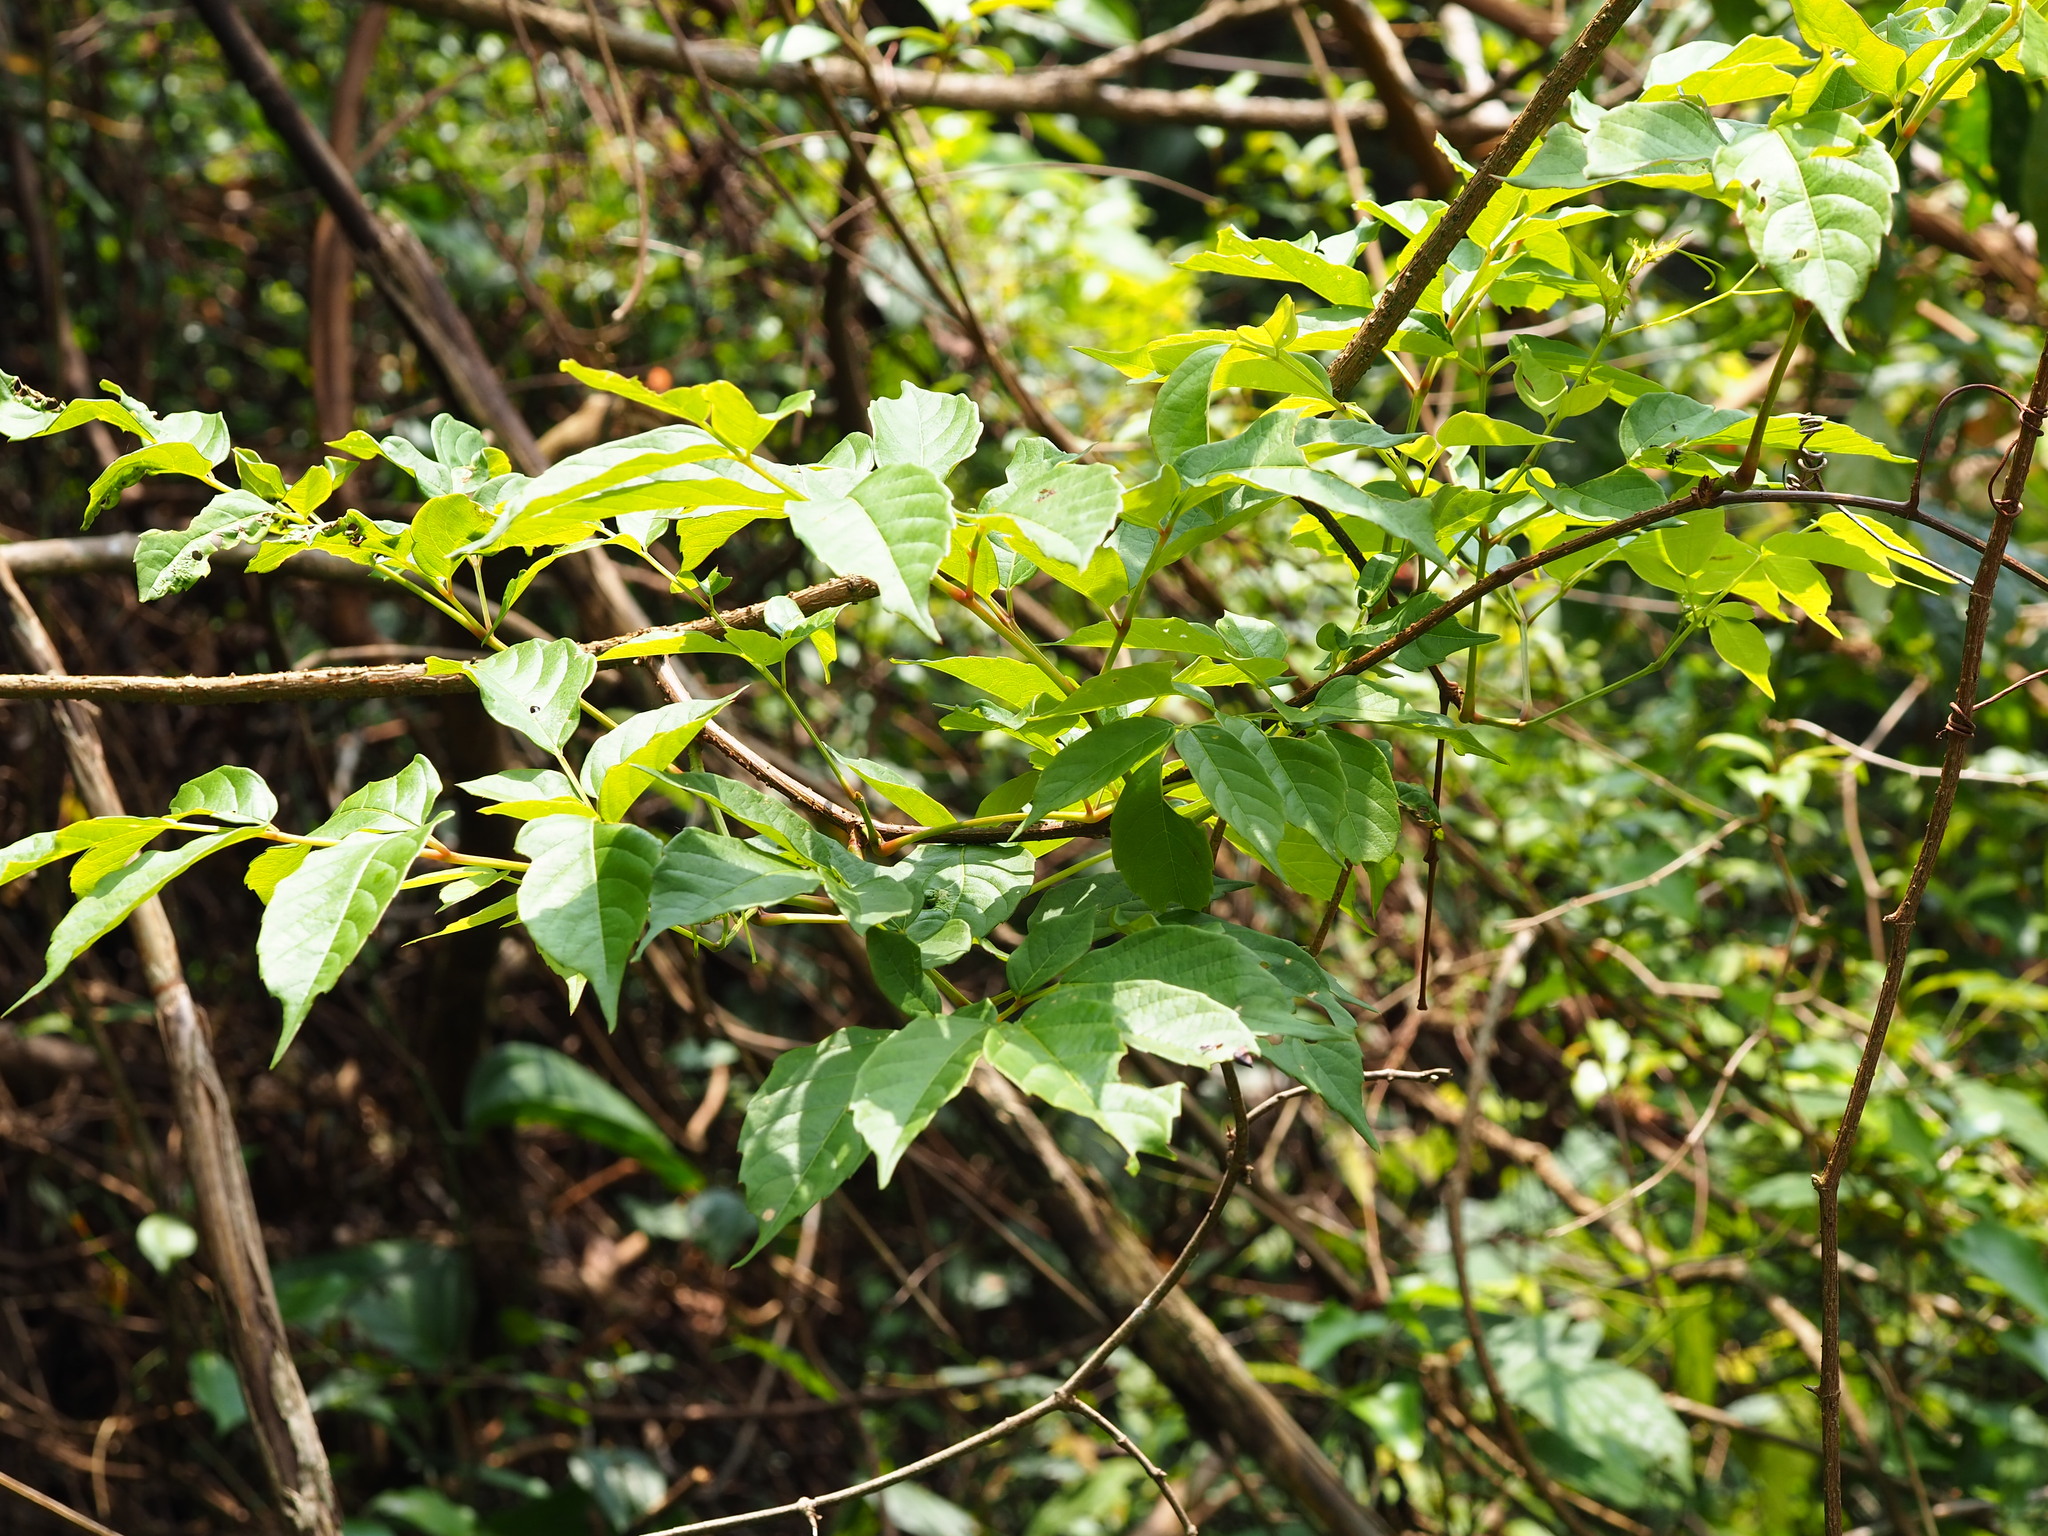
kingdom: Plantae
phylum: Tracheophyta
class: Magnoliopsida
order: Fabales
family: Fabaceae
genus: Phanera
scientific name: Phanera championii
